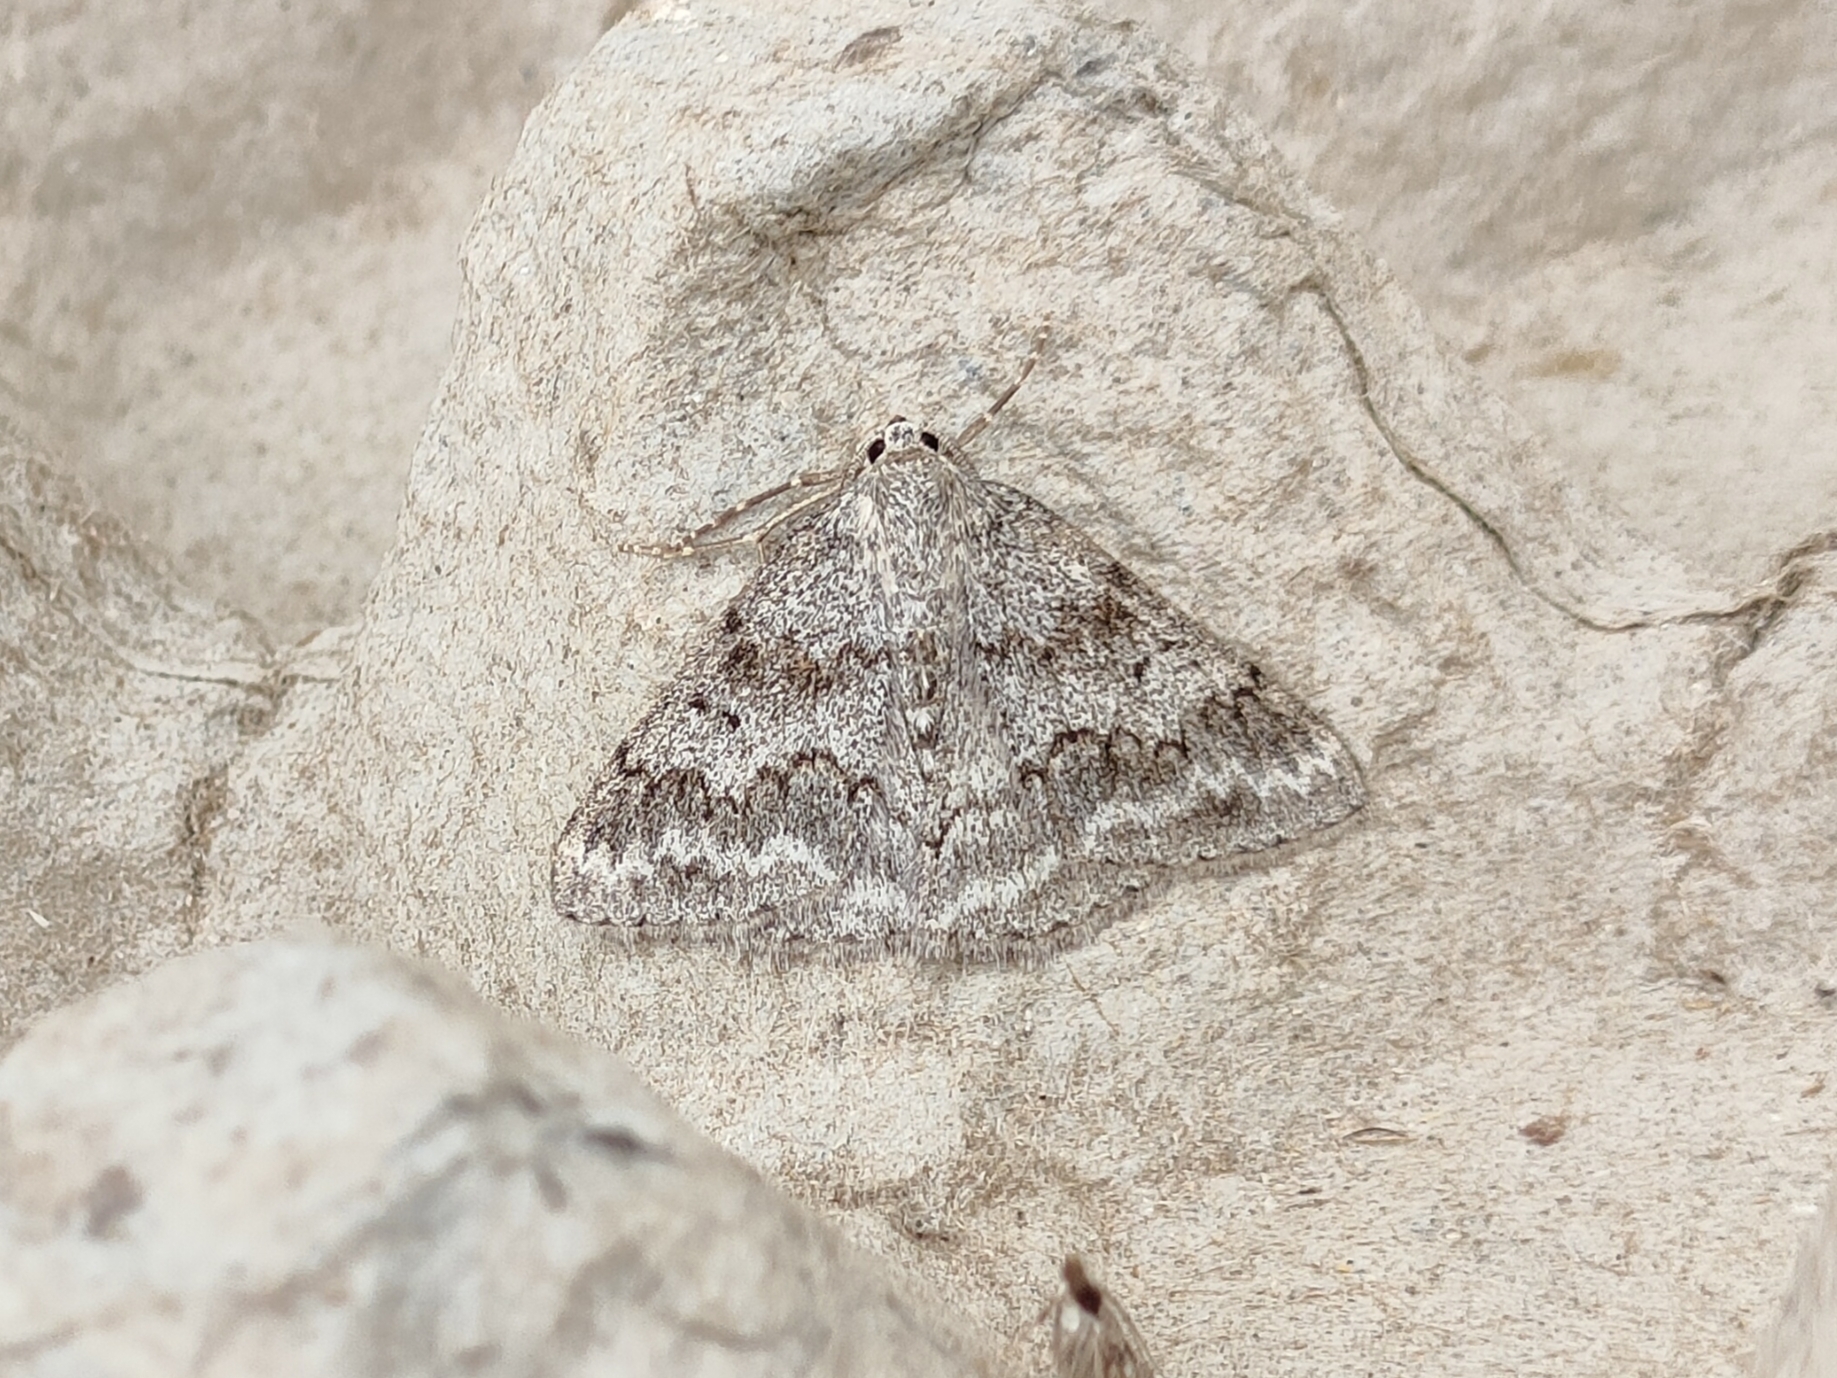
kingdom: Animalia
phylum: Arthropoda
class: Insecta
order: Lepidoptera
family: Geometridae
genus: Pseudoterpna
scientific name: Pseudoterpna coronillaria
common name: Jersey emerald
